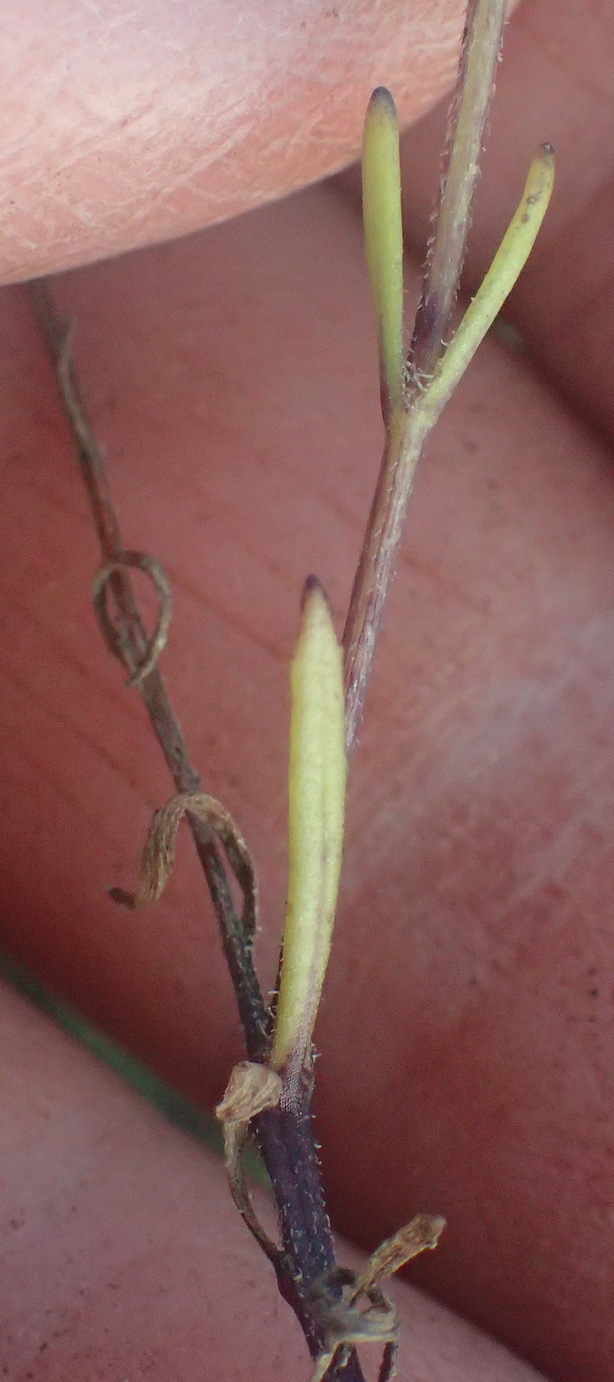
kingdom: Plantae
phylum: Tracheophyta
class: Magnoliopsida
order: Lamiales
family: Scrophulariaceae
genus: Pseudoselago
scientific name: Pseudoselago outeniquensis
